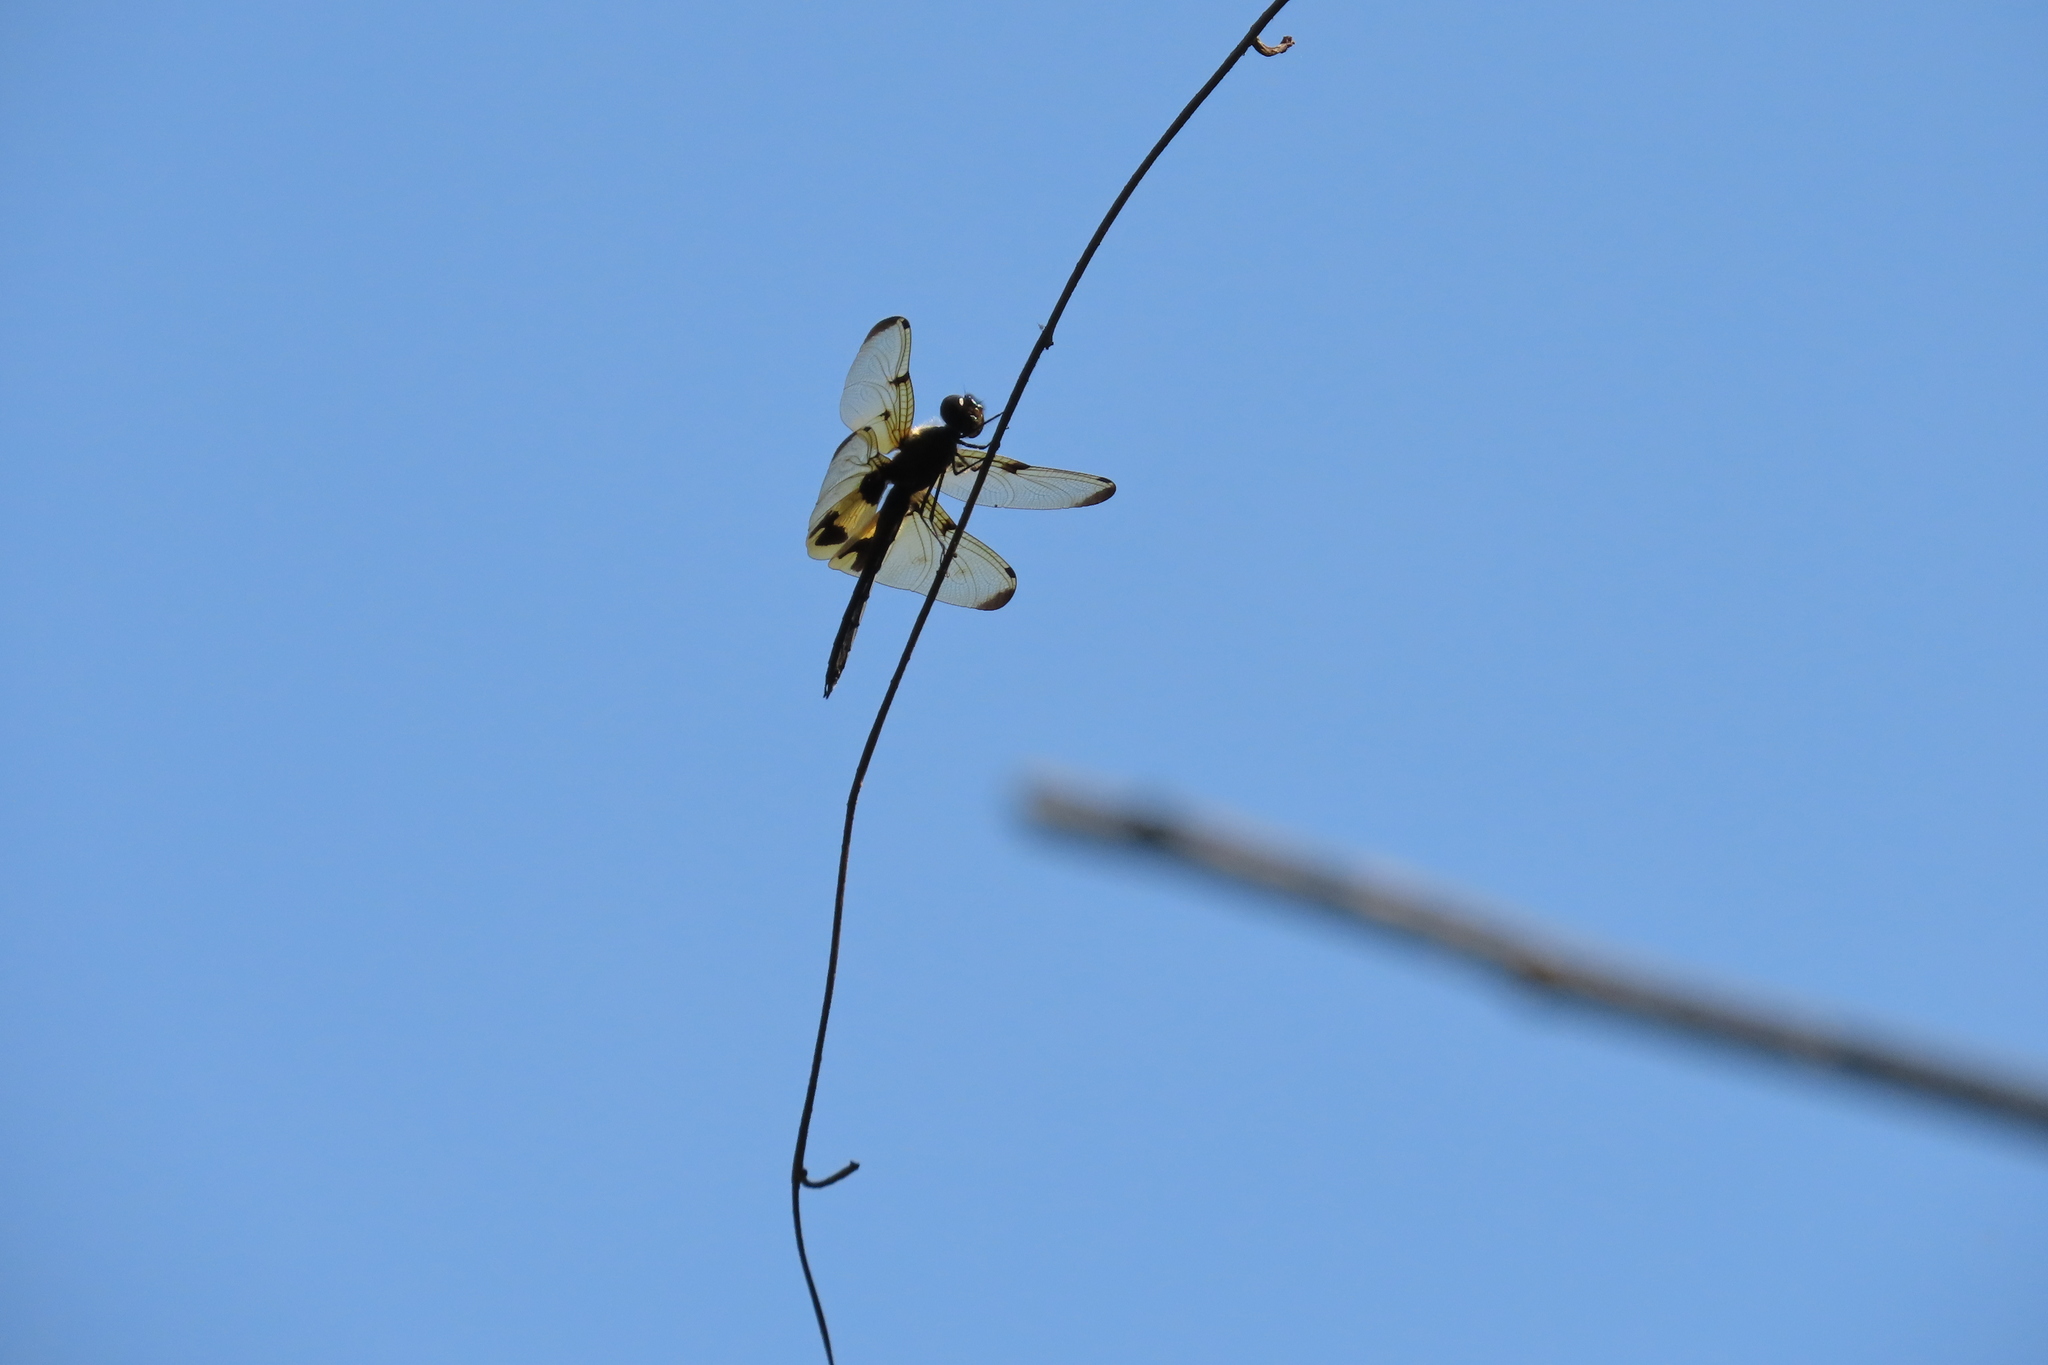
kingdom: Animalia
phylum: Arthropoda
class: Insecta
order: Odonata
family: Libellulidae
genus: Rhyothemis
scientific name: Rhyothemis variegata
